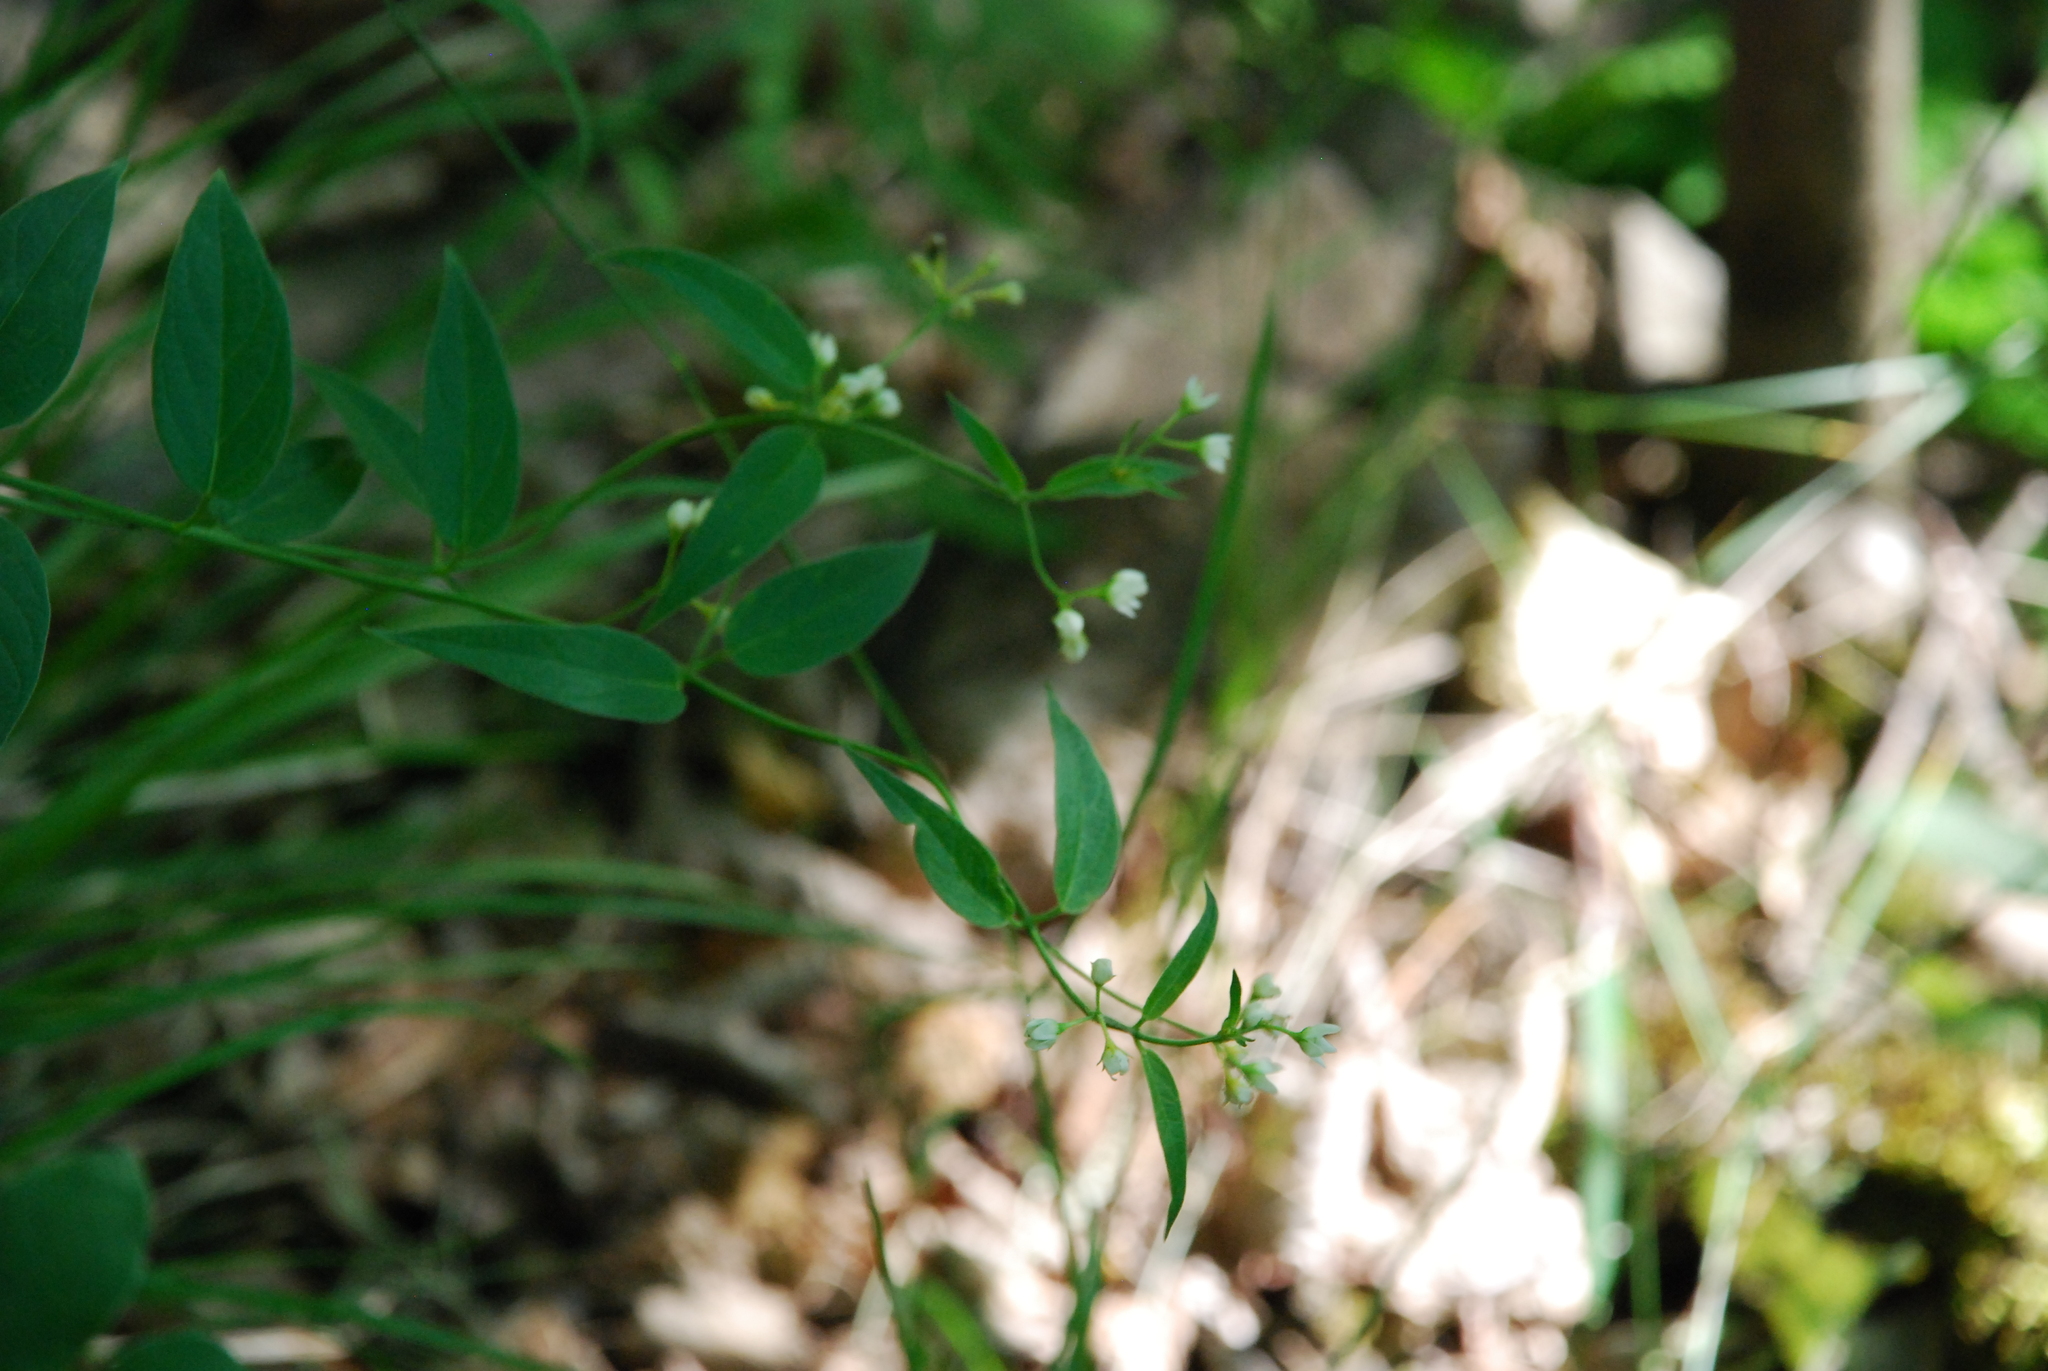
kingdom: Plantae
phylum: Tracheophyta
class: Magnoliopsida
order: Gentianales
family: Apocynaceae
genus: Vincetoxicum
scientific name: Vincetoxicum hirundinaria
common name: White swallowwort
